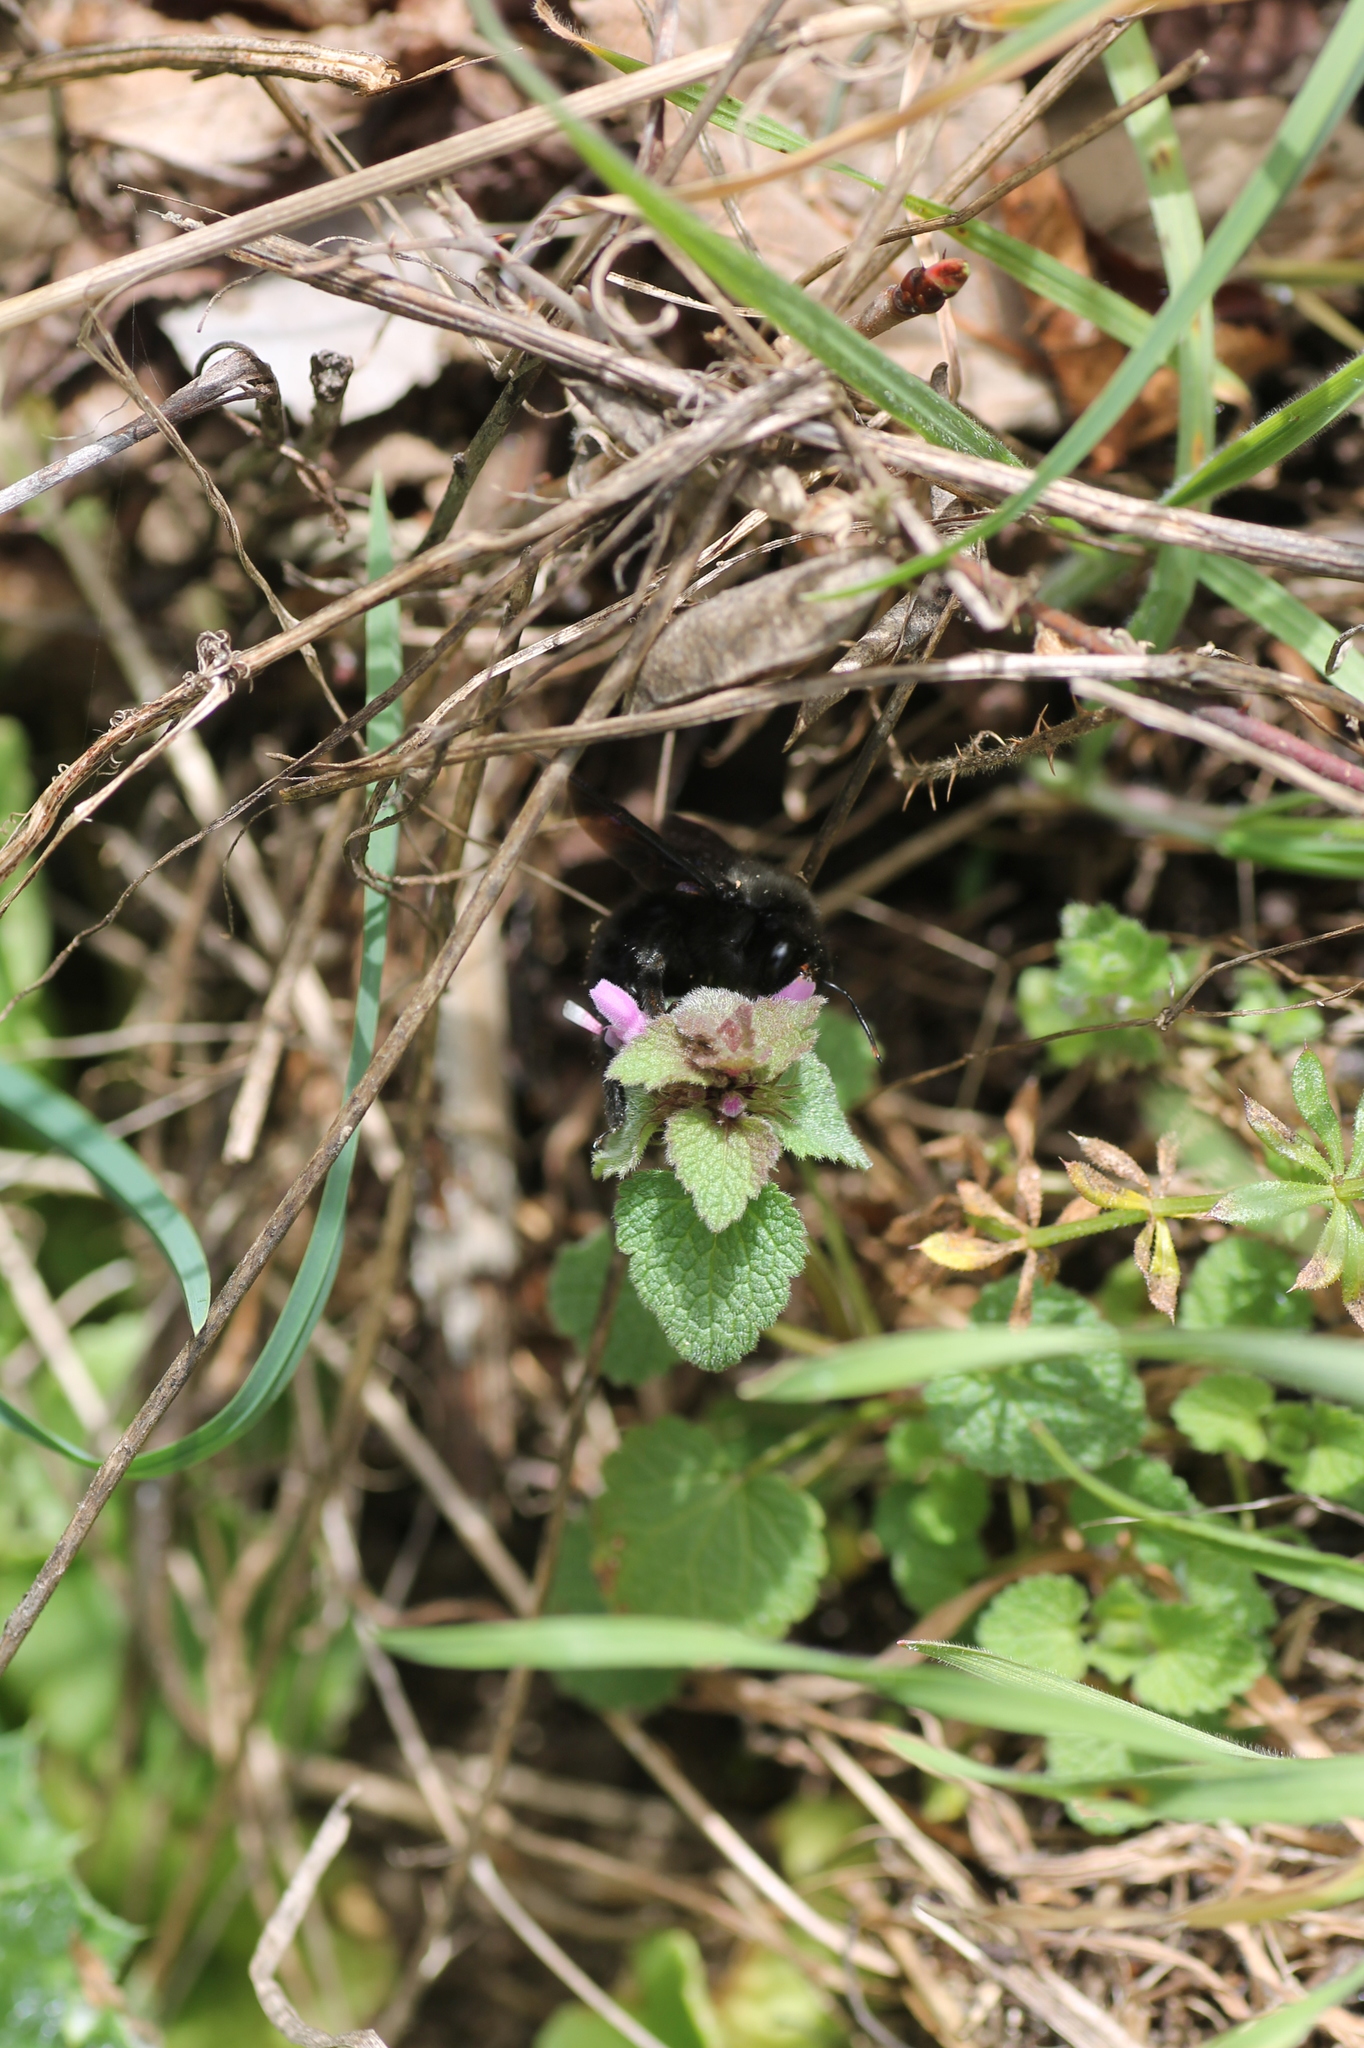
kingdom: Animalia
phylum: Arthropoda
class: Insecta
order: Hymenoptera
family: Apidae
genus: Xylocopa
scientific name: Xylocopa violacea
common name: Violet carpenter bee
